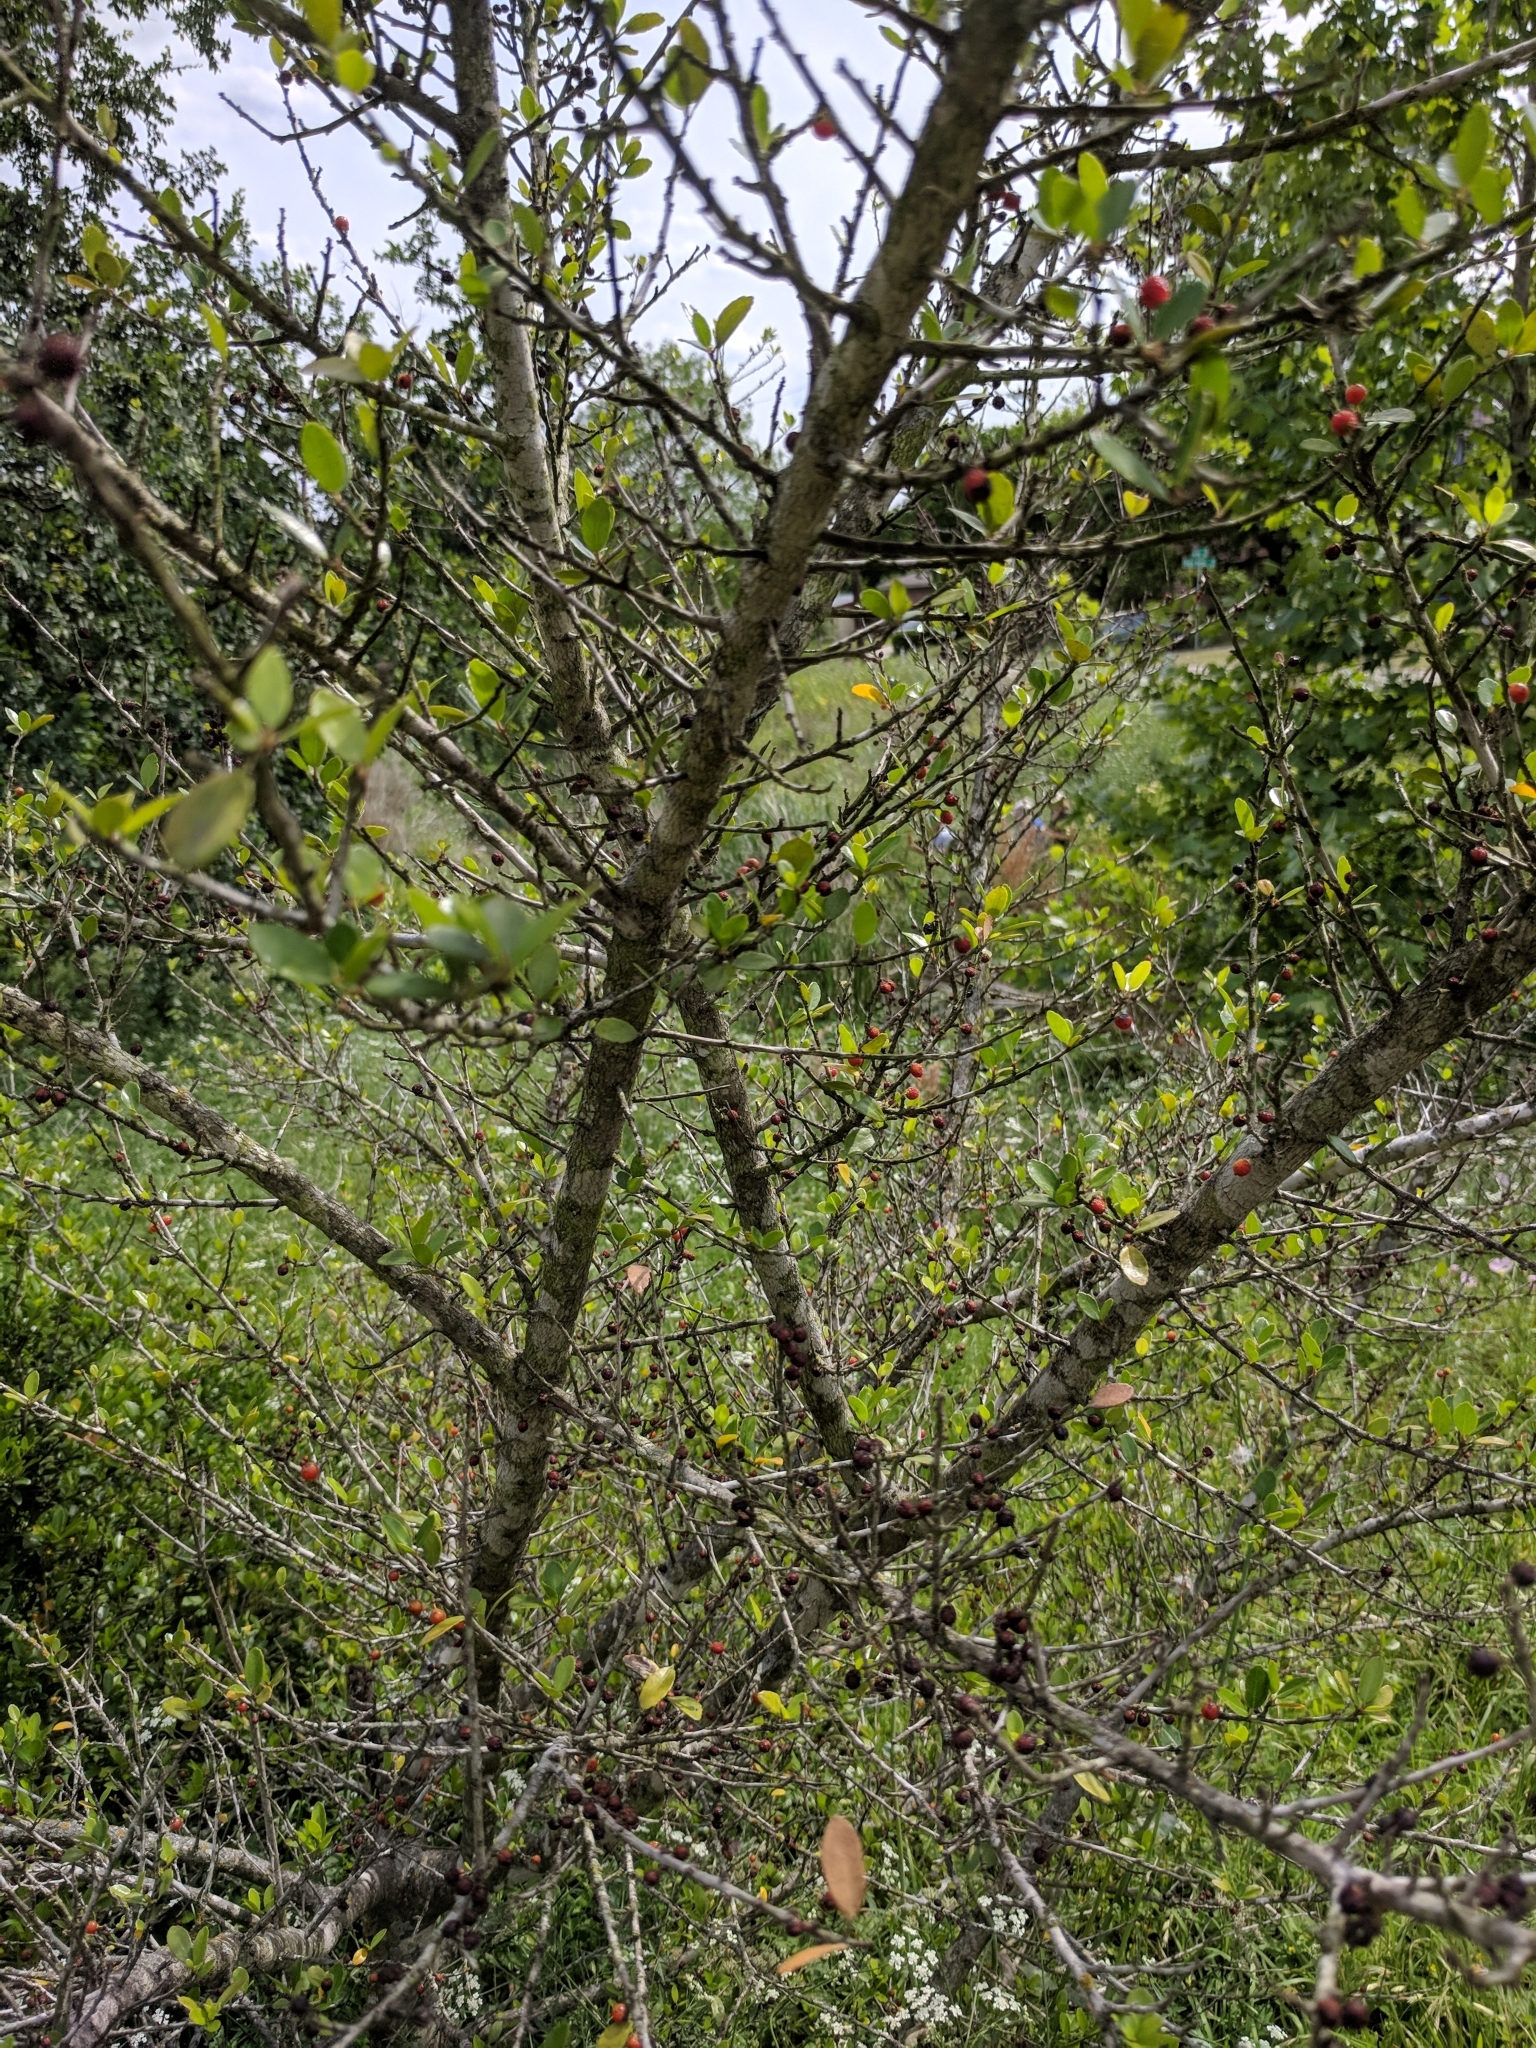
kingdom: Plantae
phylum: Tracheophyta
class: Magnoliopsida
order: Aquifoliales
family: Aquifoliaceae
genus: Ilex
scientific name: Ilex vomitoria
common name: Yaupon holly
